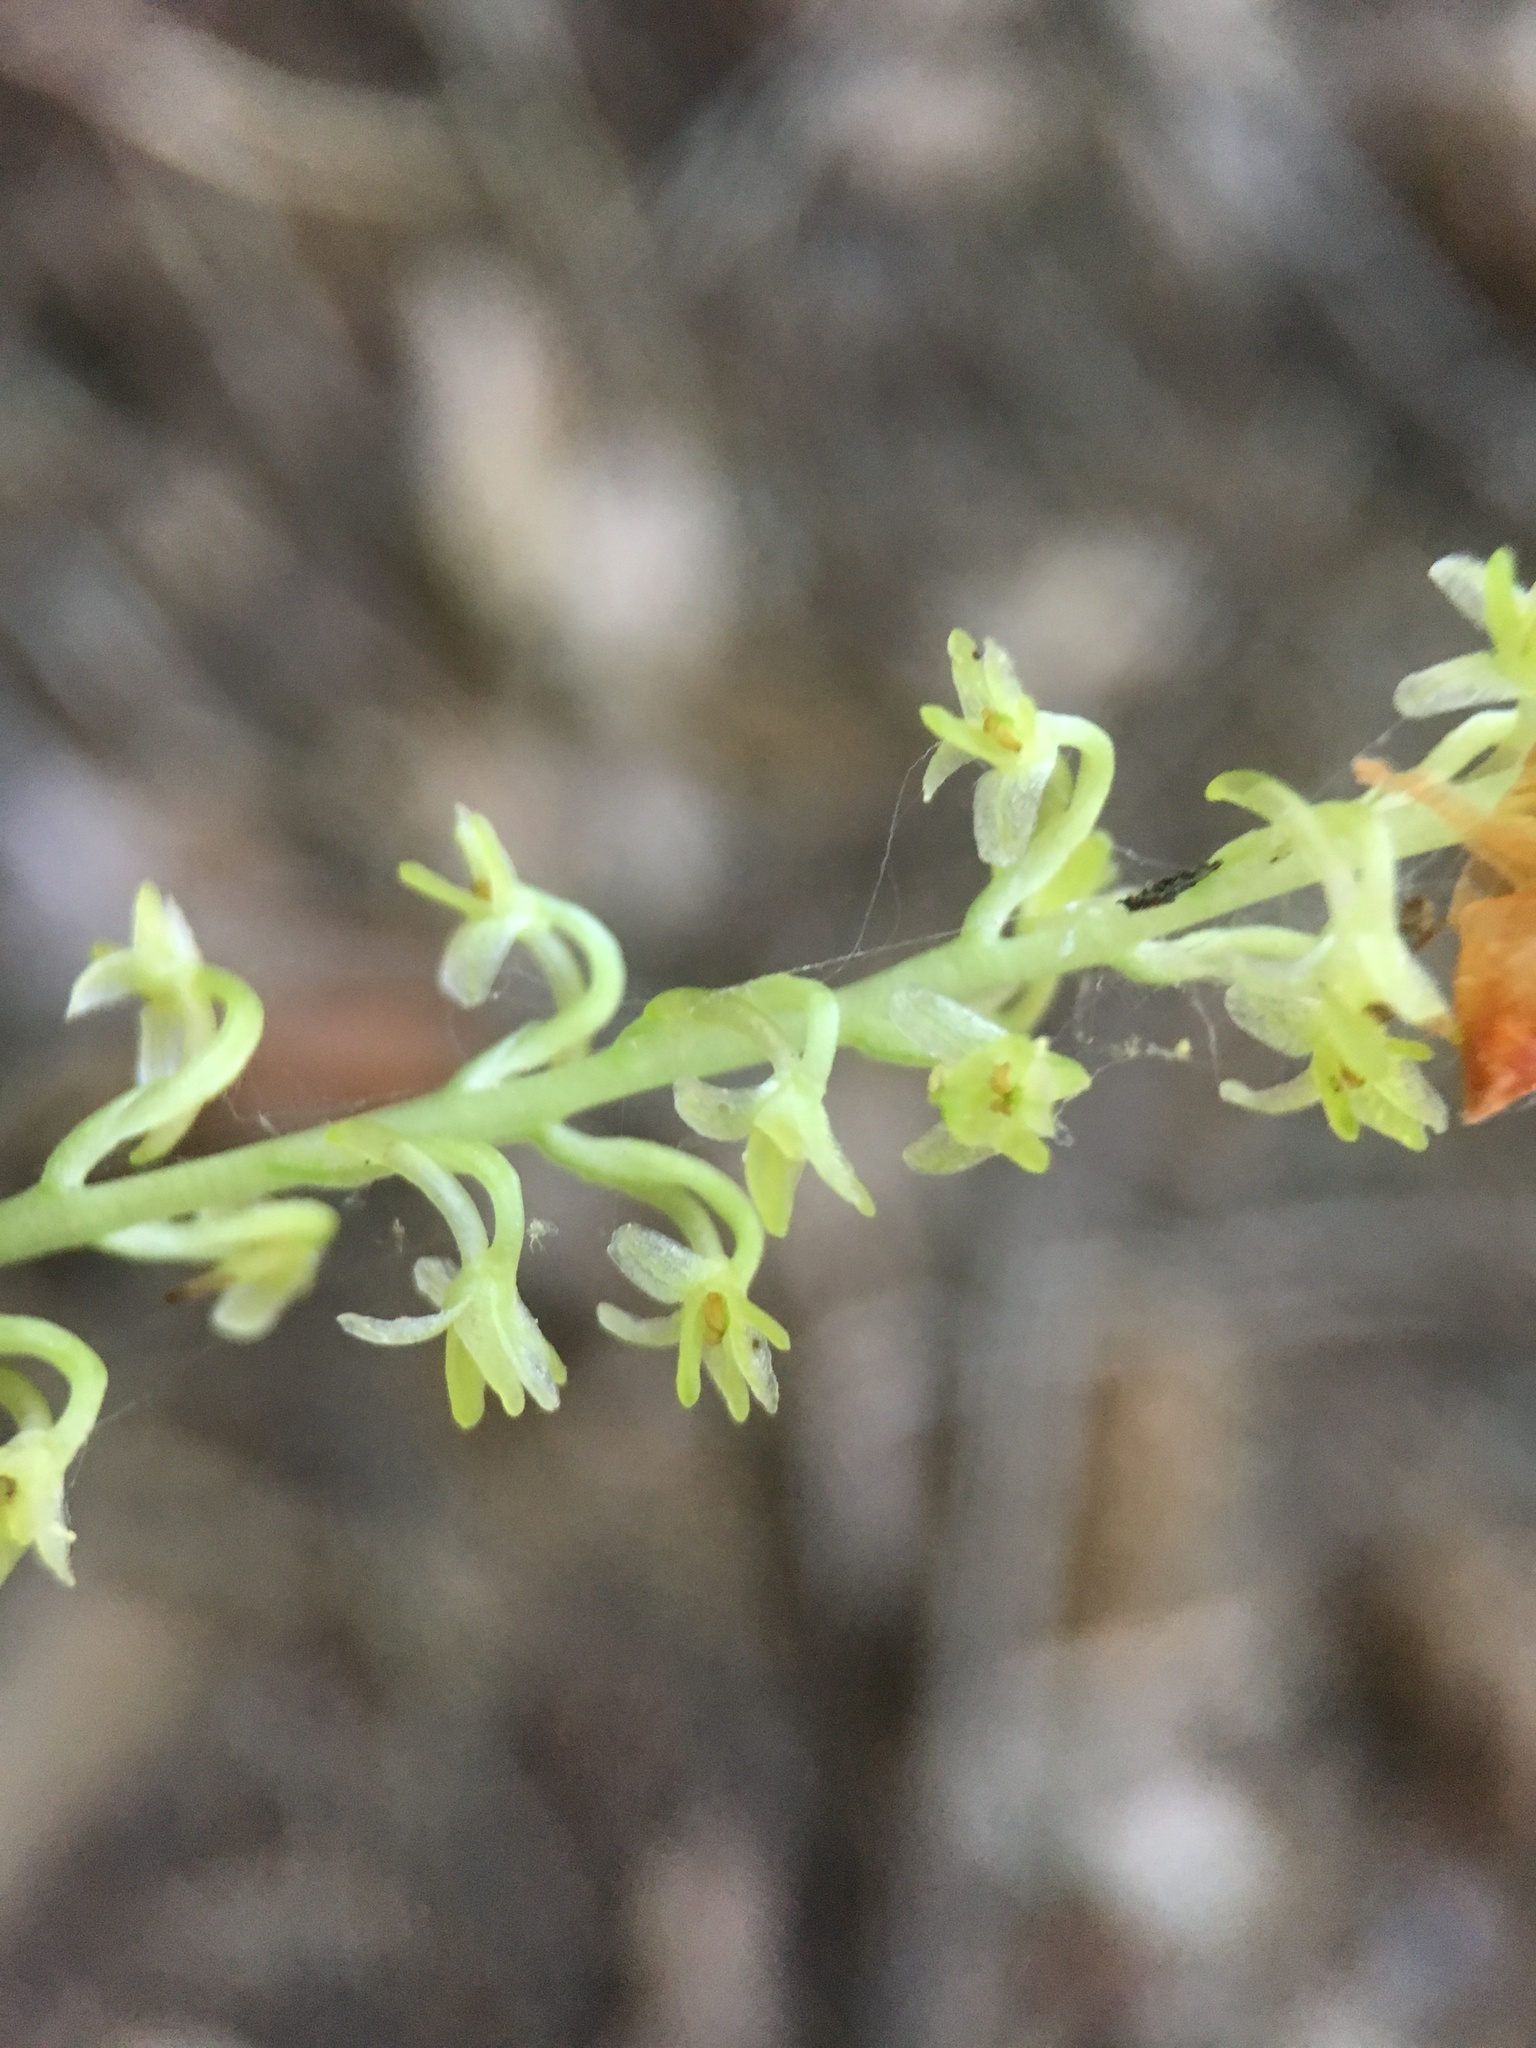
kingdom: Plantae
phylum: Tracheophyta
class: Liliopsida
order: Asparagales
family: Orchidaceae
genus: Platanthera
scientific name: Platanthera unalascensis
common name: Alaska bog orchid
